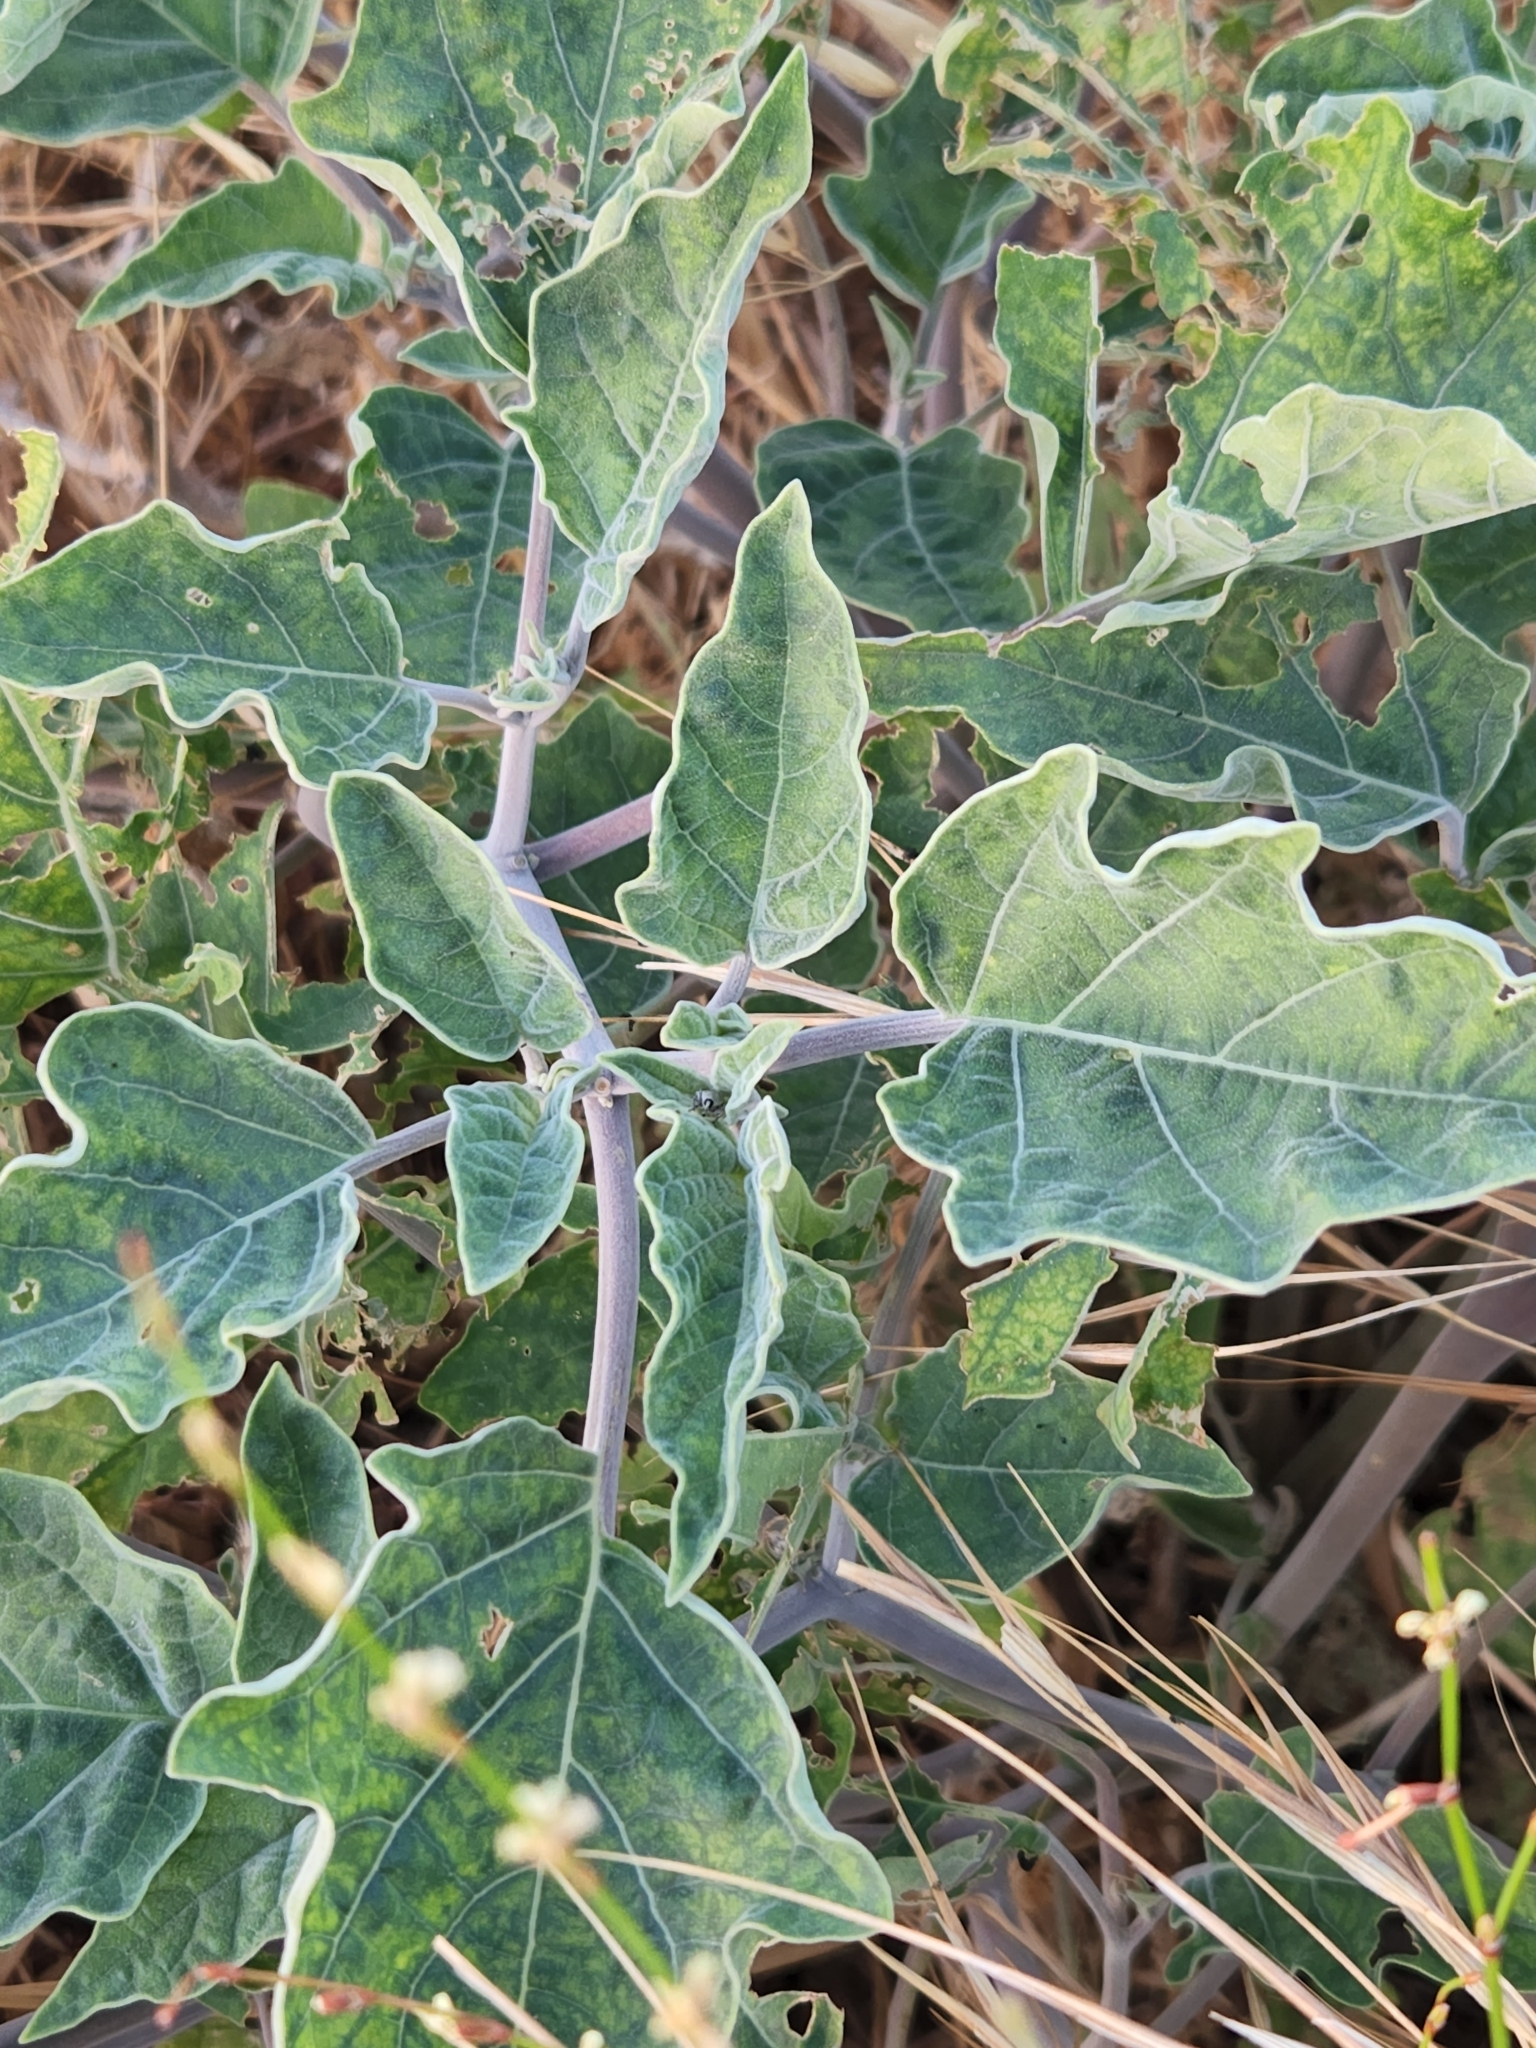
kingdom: Plantae
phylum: Tracheophyta
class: Magnoliopsida
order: Solanales
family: Solanaceae
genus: Datura
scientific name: Datura wrightii
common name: Sacred thorn-apple
